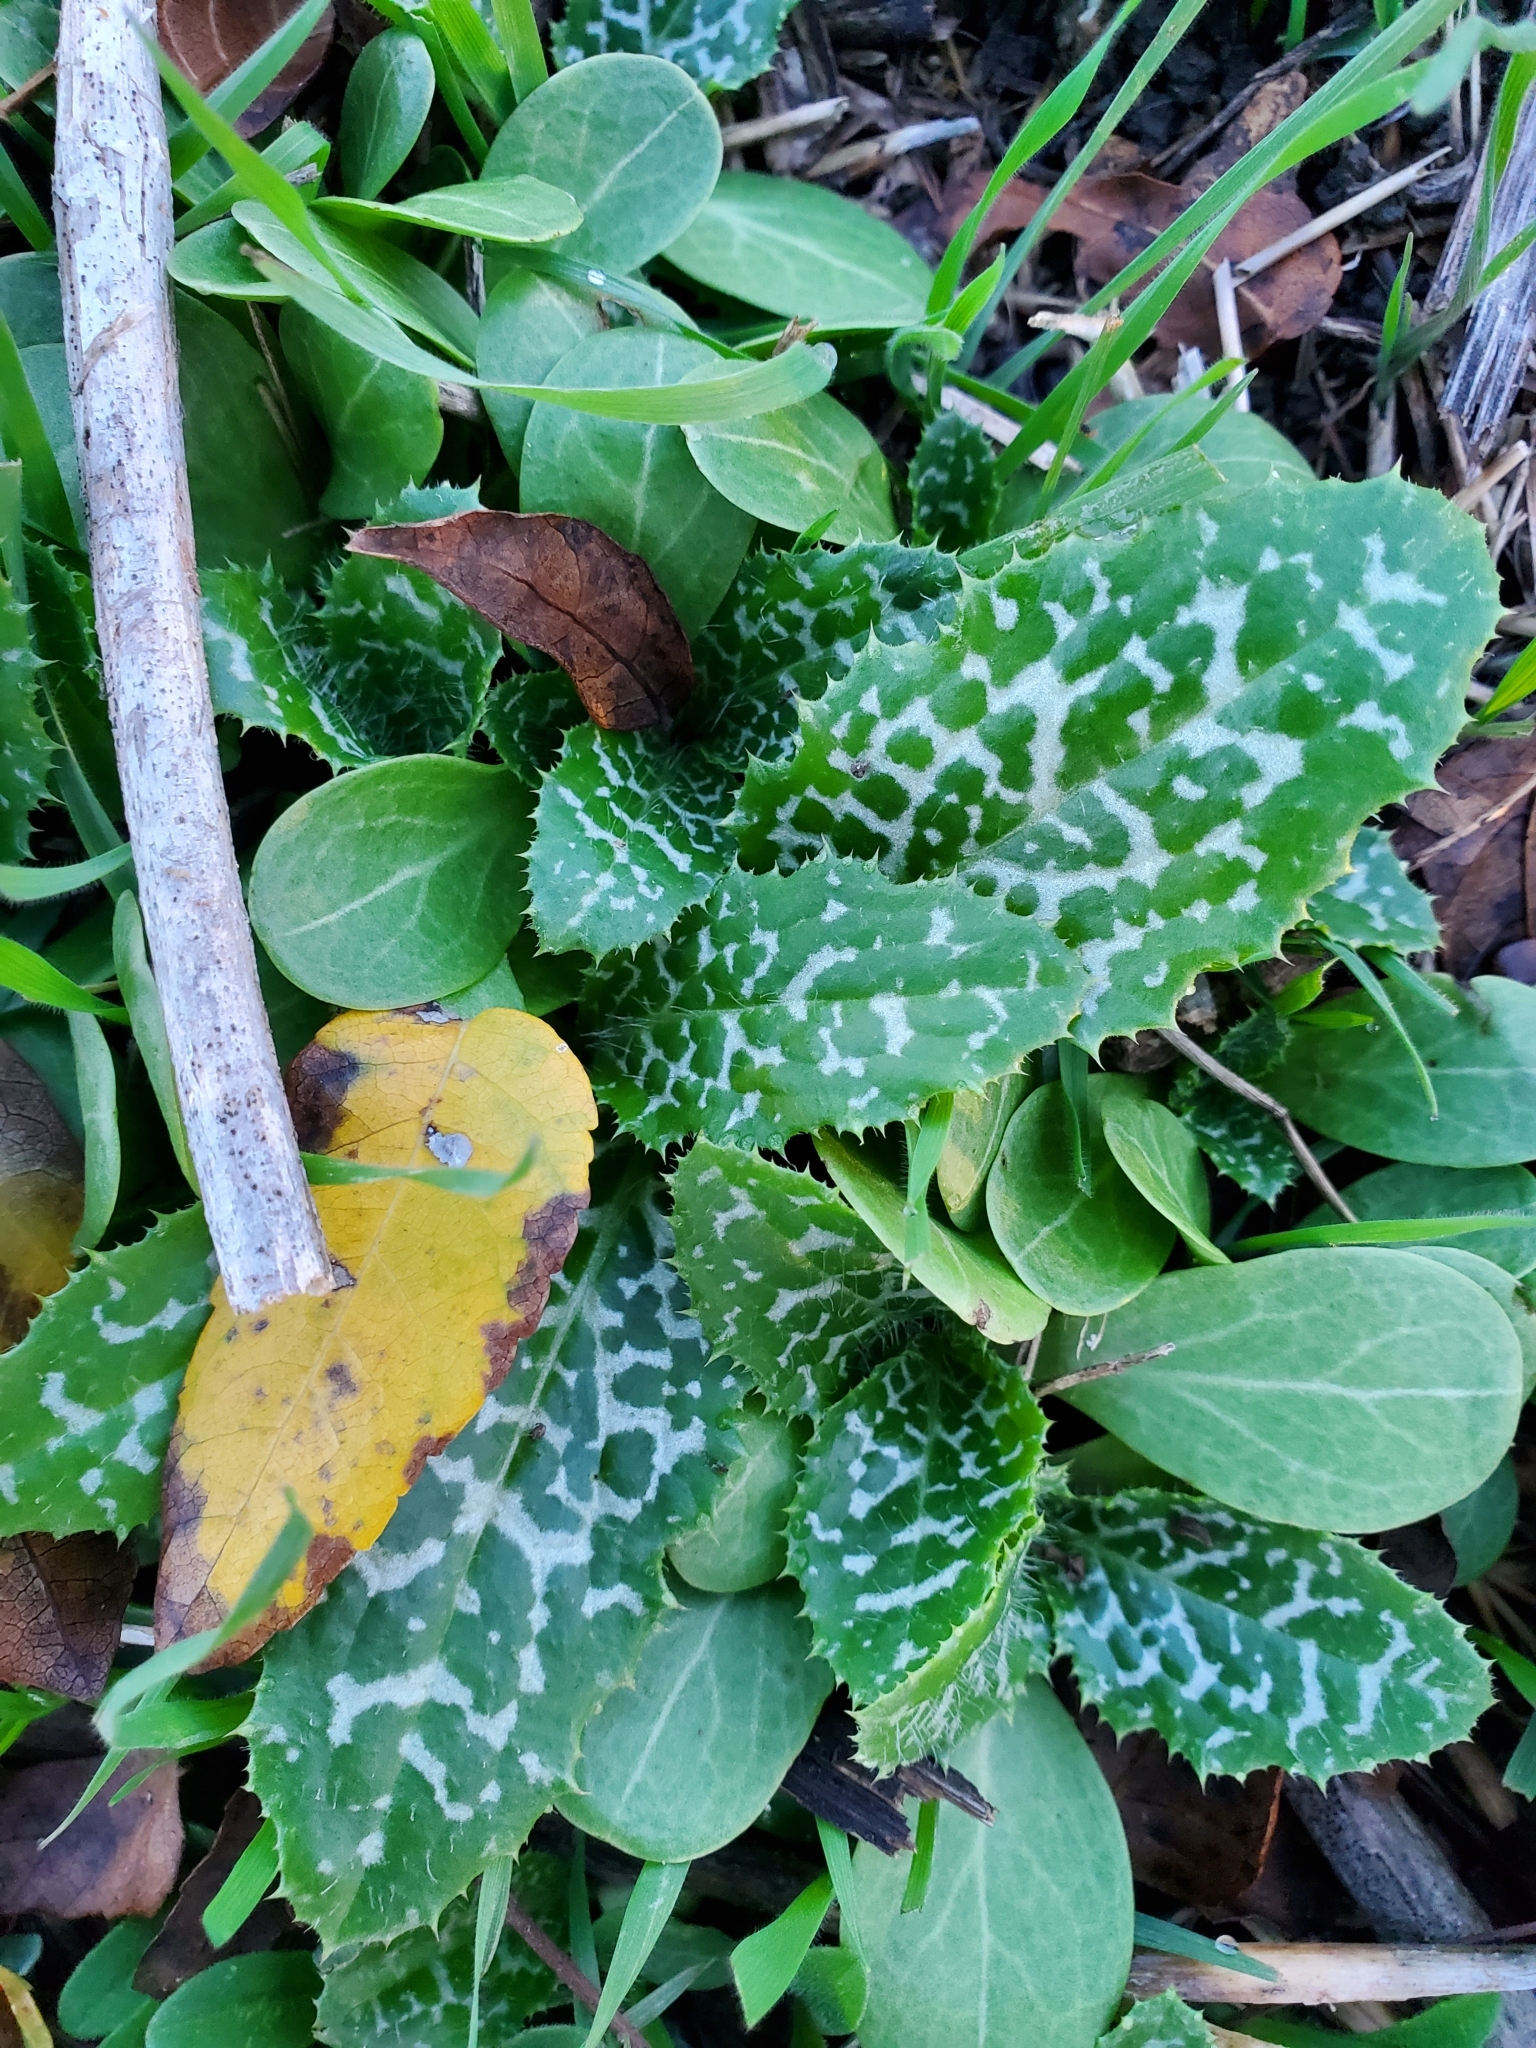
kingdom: Plantae
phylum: Tracheophyta
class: Magnoliopsida
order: Asterales
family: Asteraceae
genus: Silybum
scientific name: Silybum marianum
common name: Milk thistle
